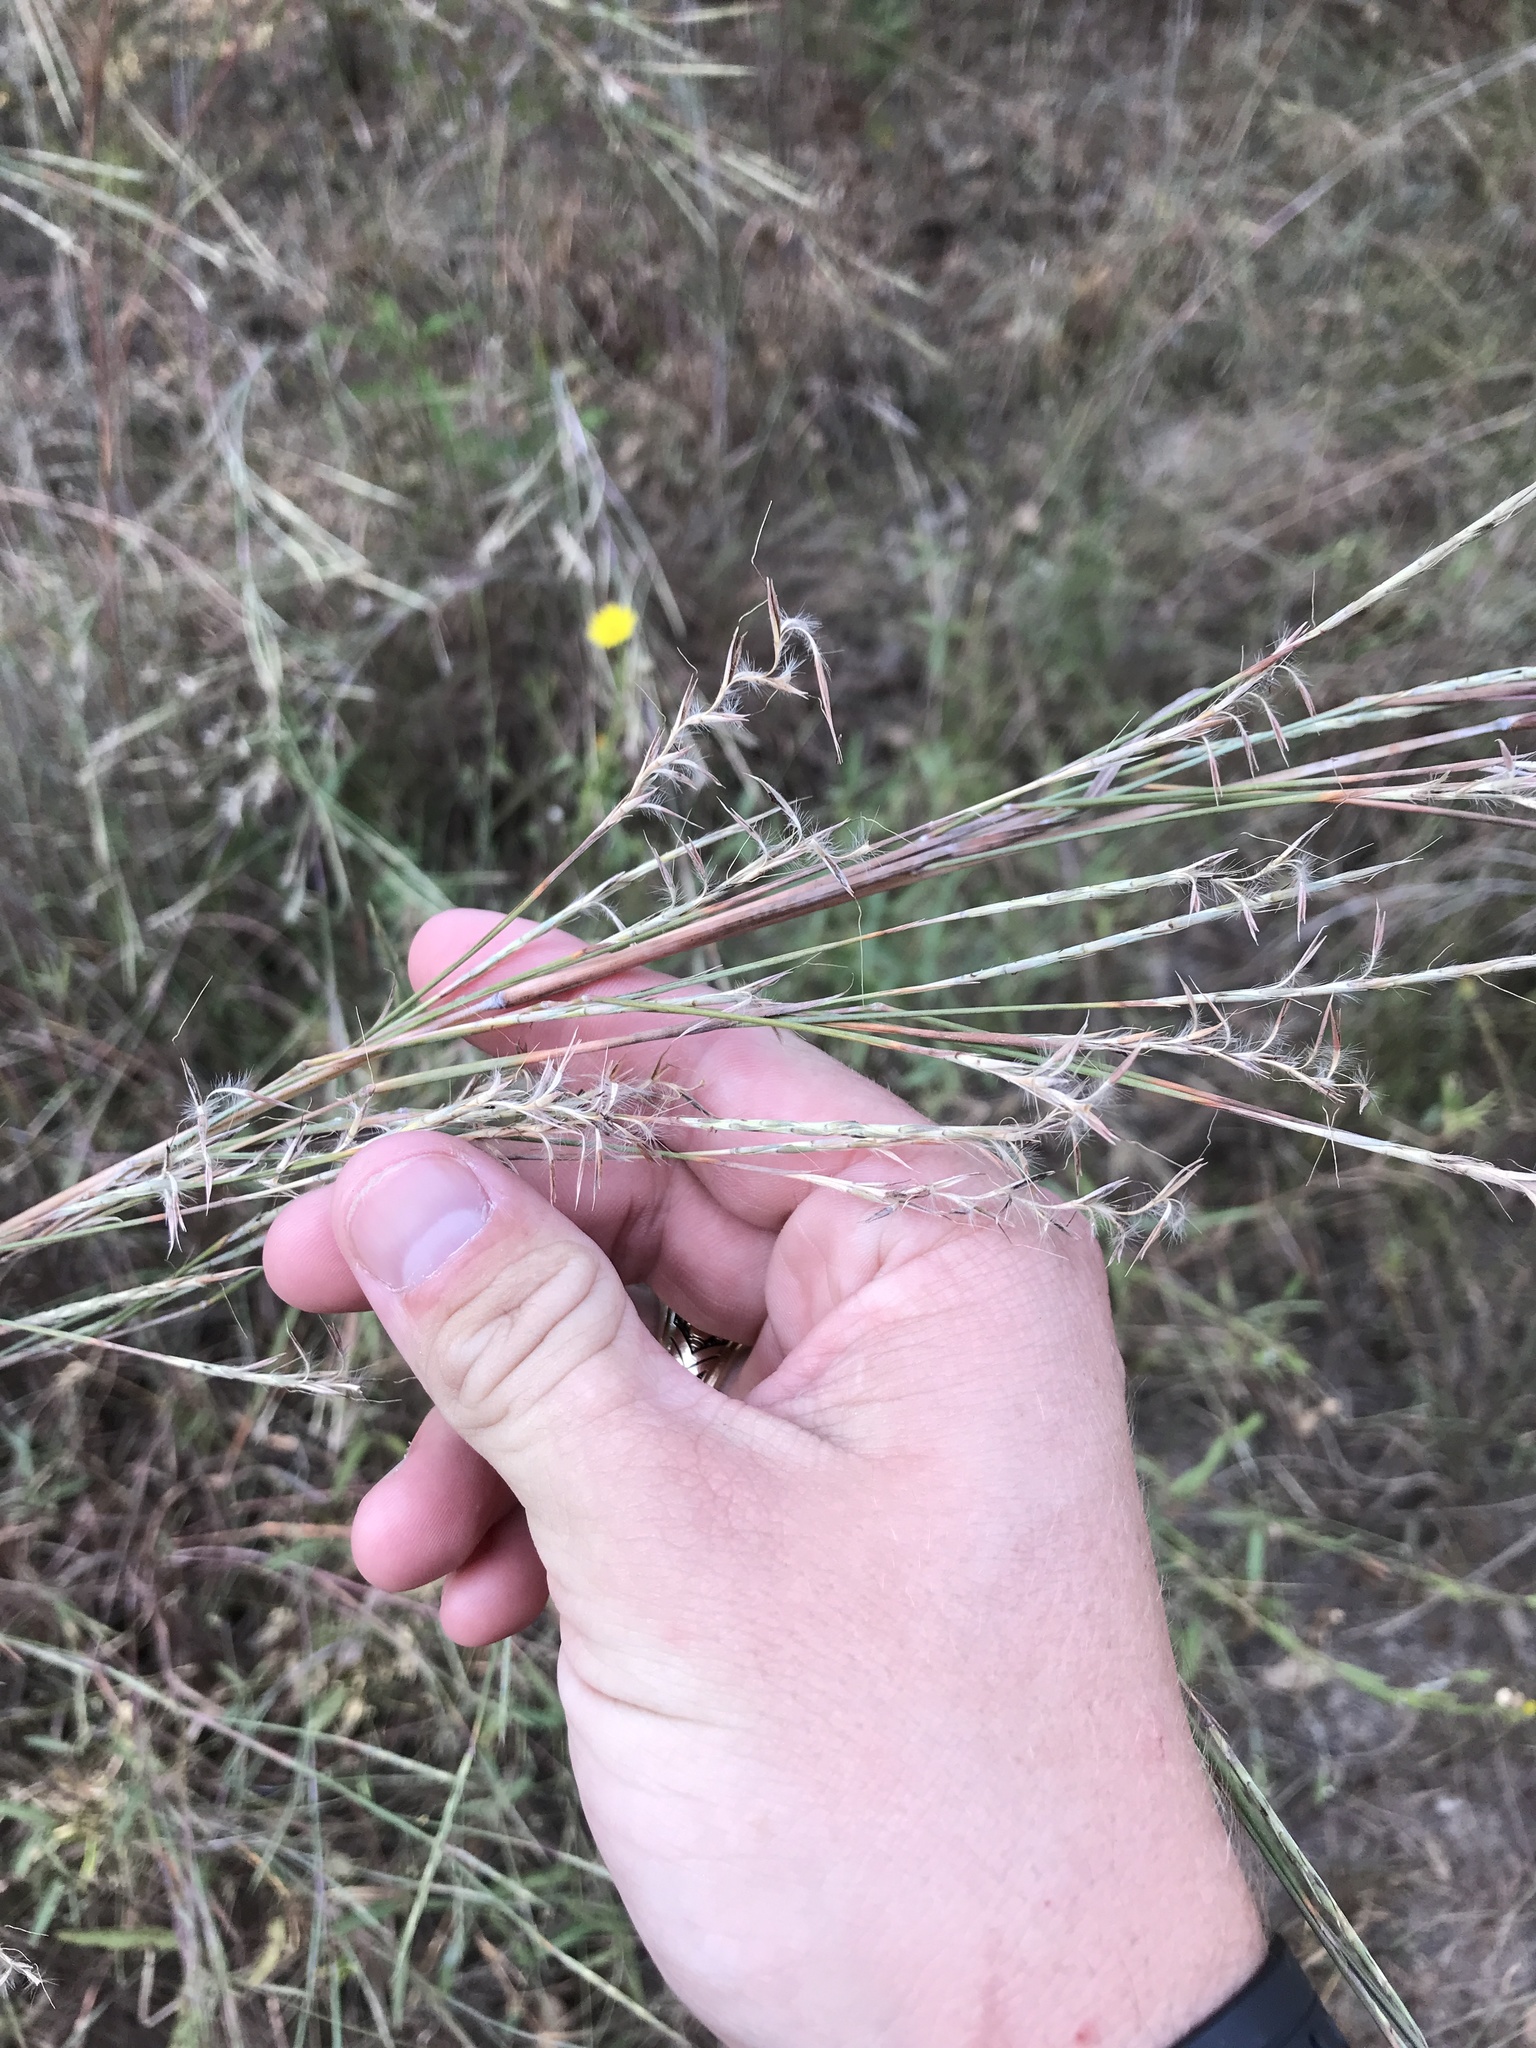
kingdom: Plantae
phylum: Tracheophyta
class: Liliopsida
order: Poales
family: Poaceae
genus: Schizachyrium
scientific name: Schizachyrium scoparium
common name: Little bluestem
